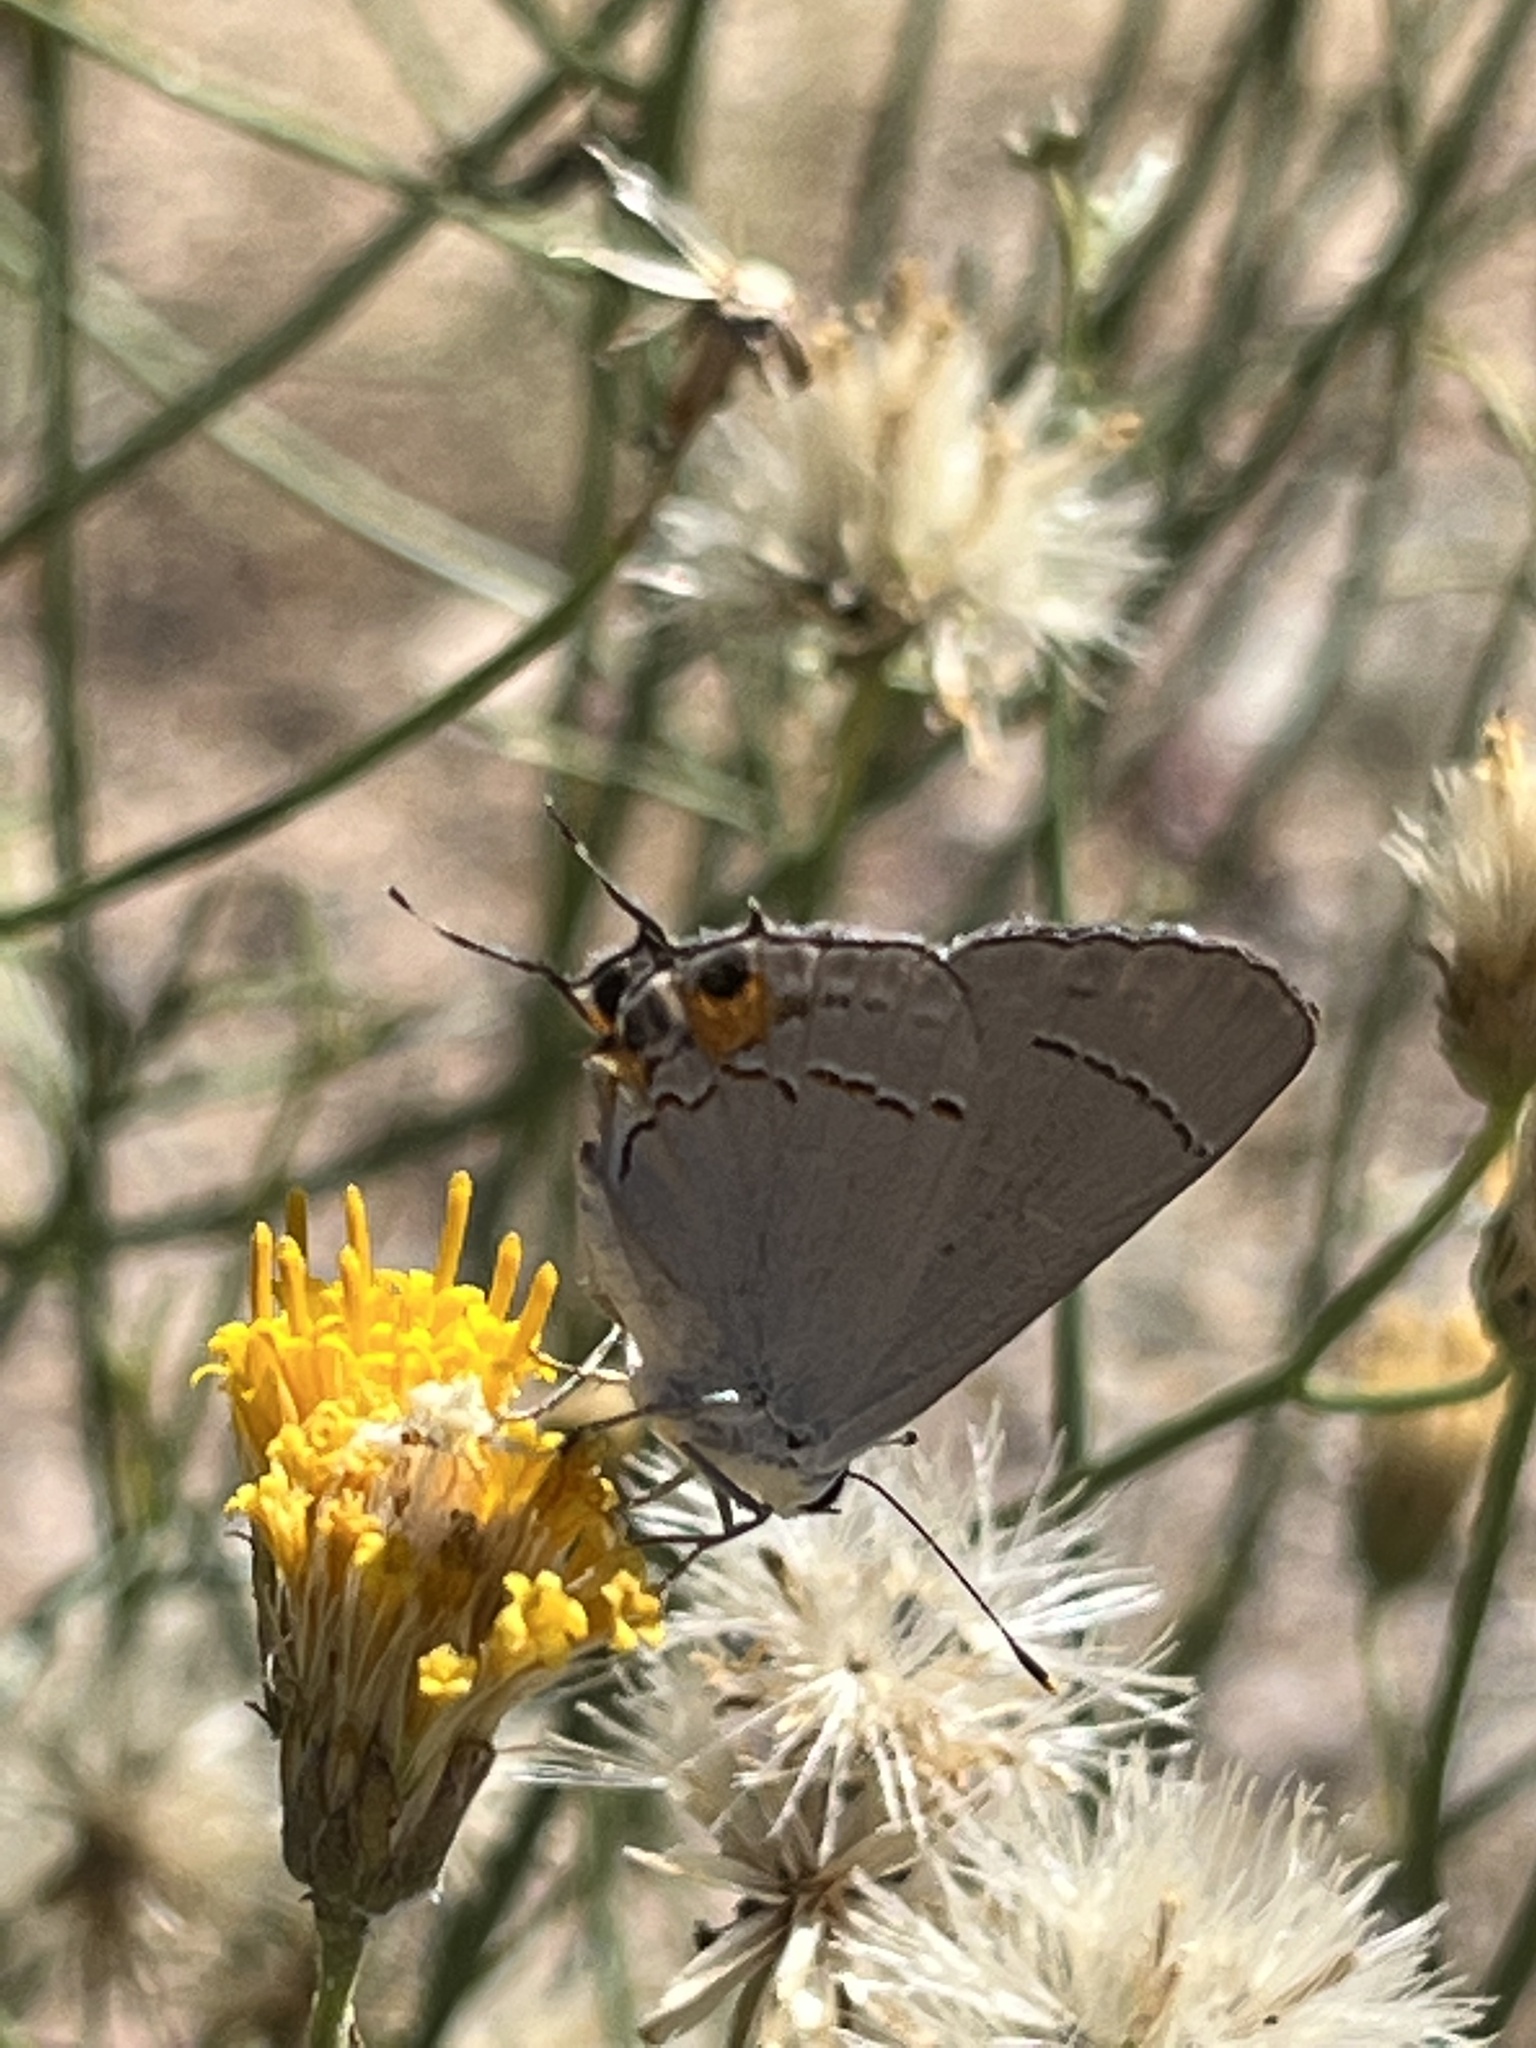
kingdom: Animalia
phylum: Arthropoda
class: Insecta
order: Lepidoptera
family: Lycaenidae
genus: Strymon
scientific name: Strymon melinus
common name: Gray hairstreak
